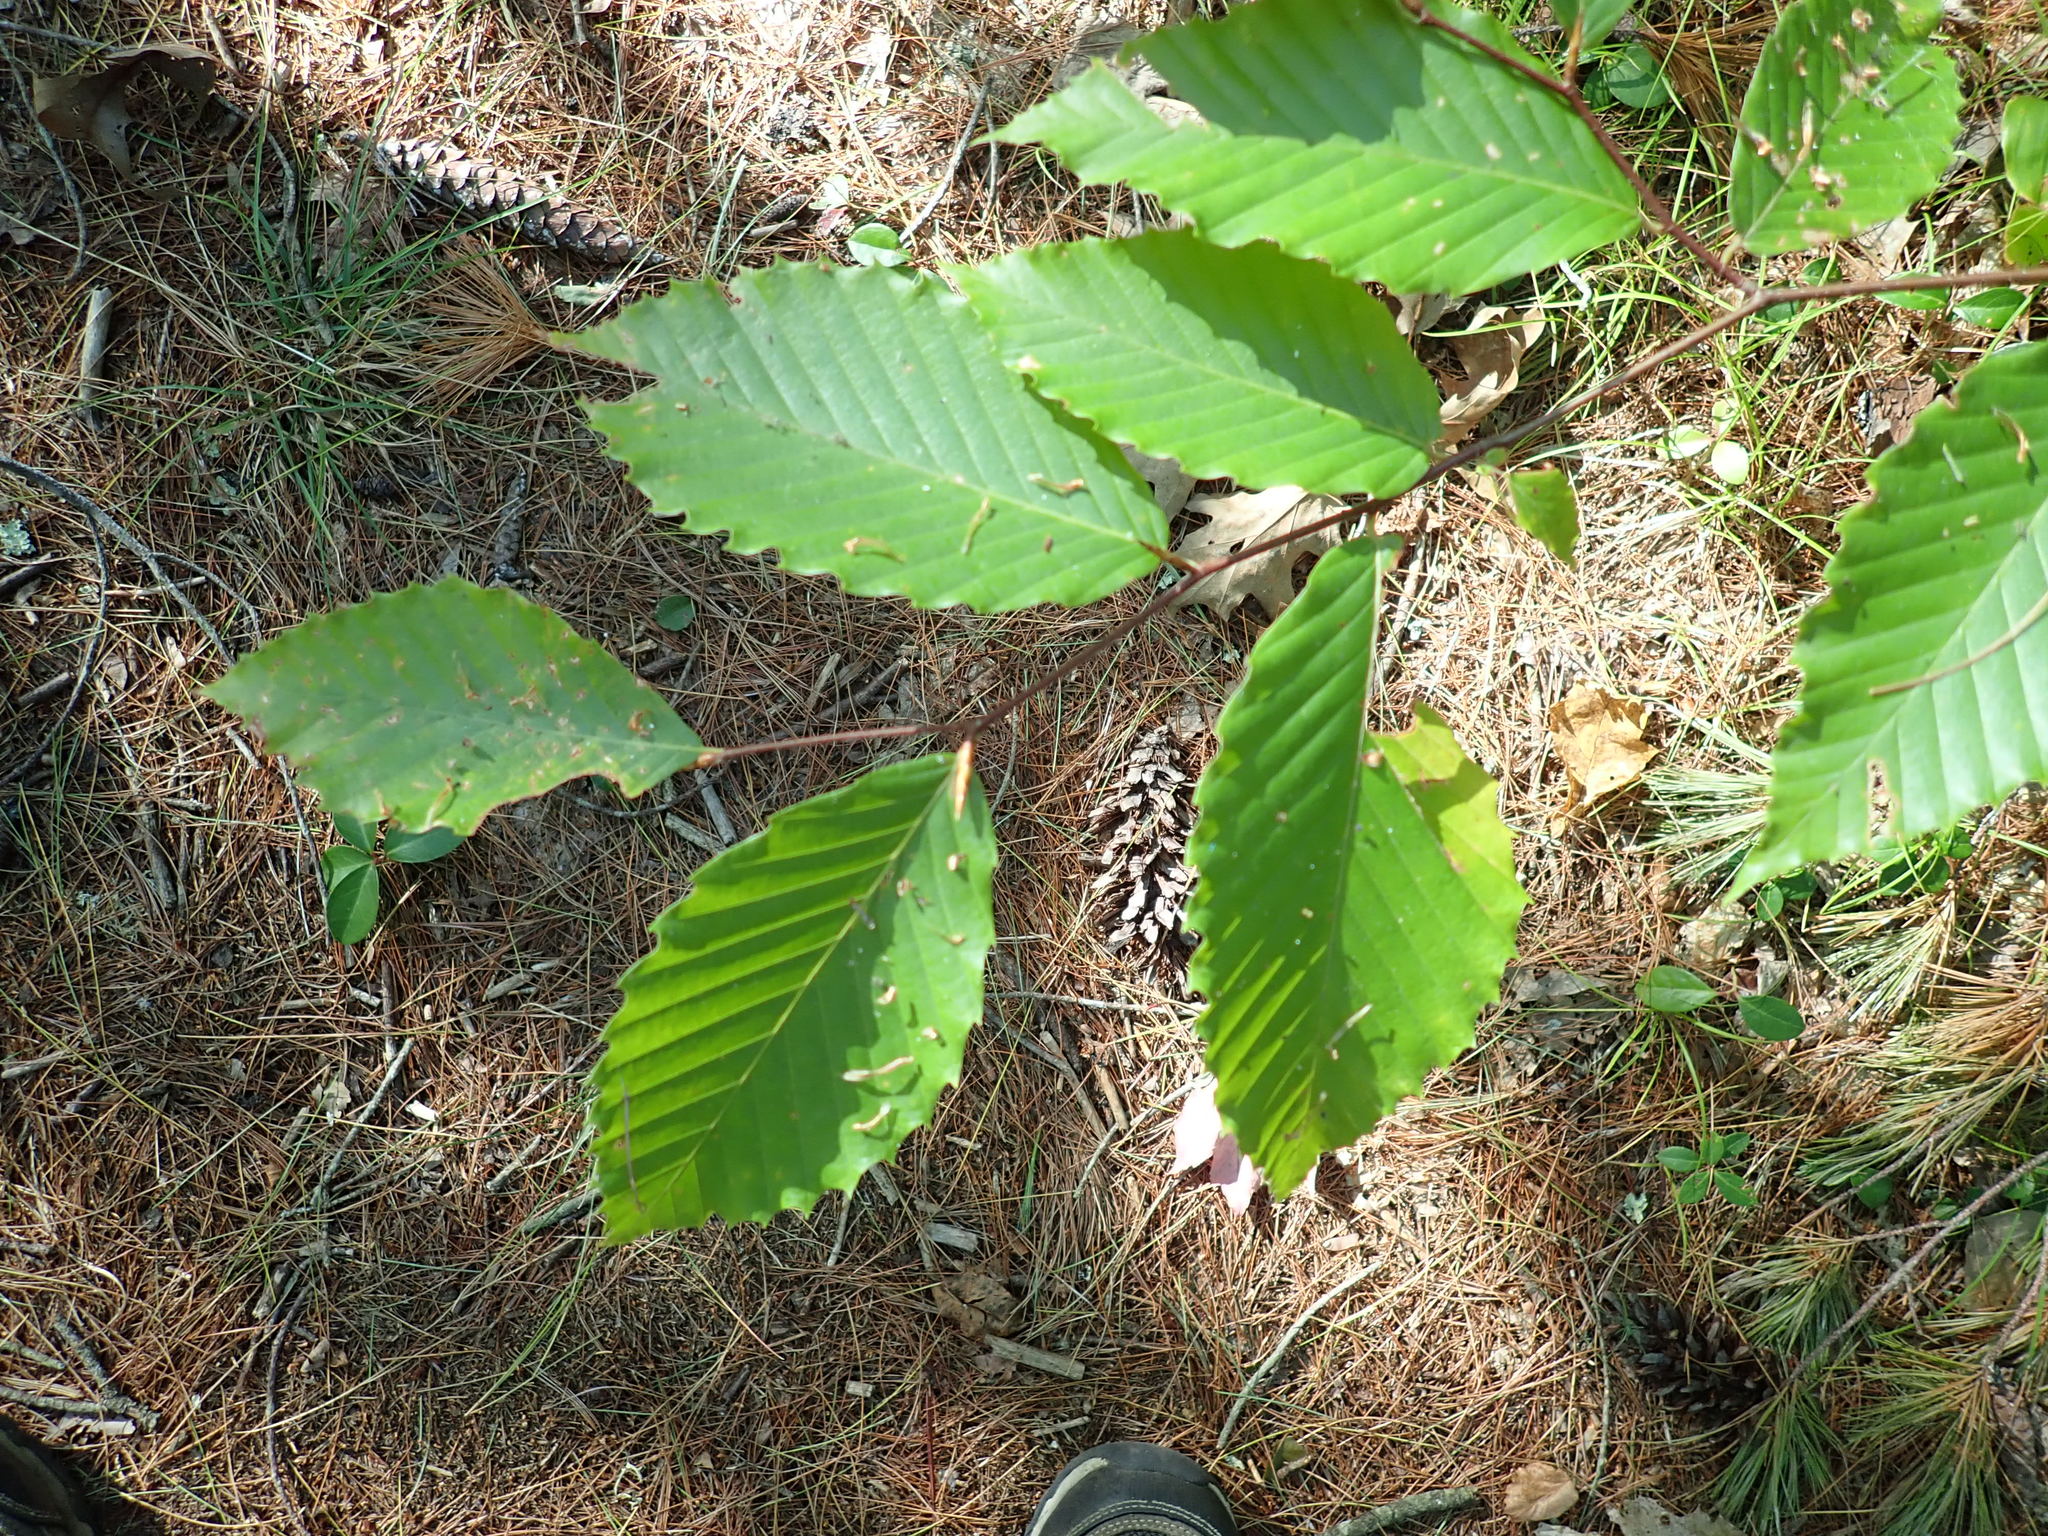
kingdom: Plantae
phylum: Tracheophyta
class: Magnoliopsida
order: Fagales
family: Fagaceae
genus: Fagus
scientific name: Fagus grandifolia
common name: American beech
